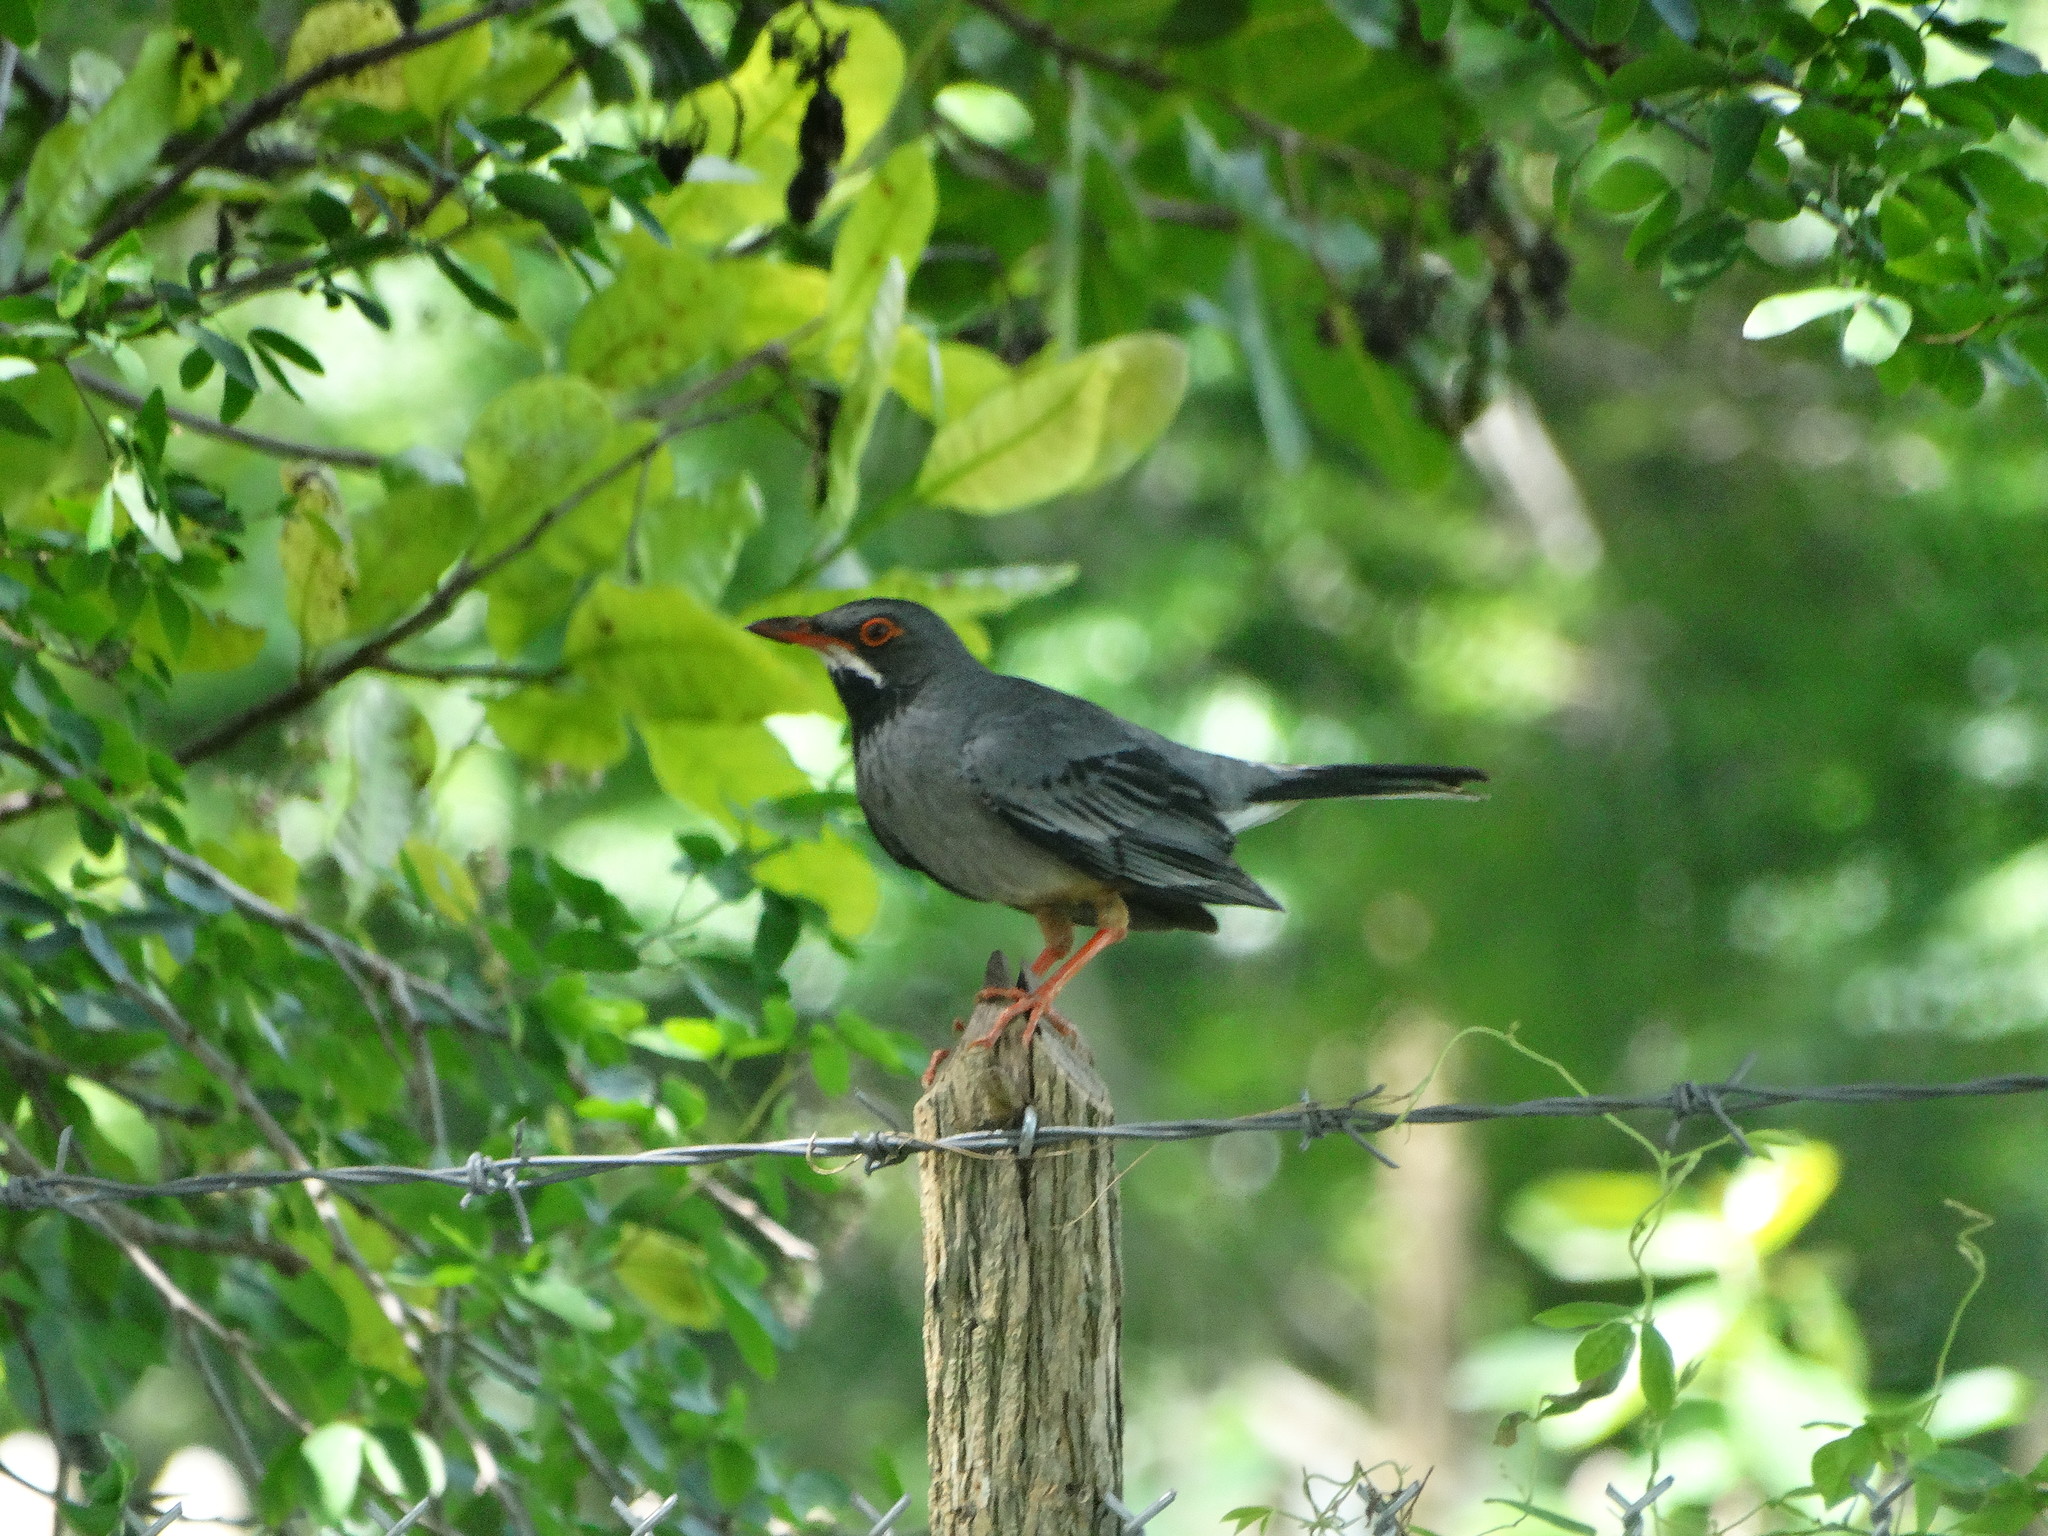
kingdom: Animalia
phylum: Chordata
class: Aves
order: Passeriformes
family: Turdidae
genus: Turdus
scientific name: Turdus plumbeus
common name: Red-legged thrush
